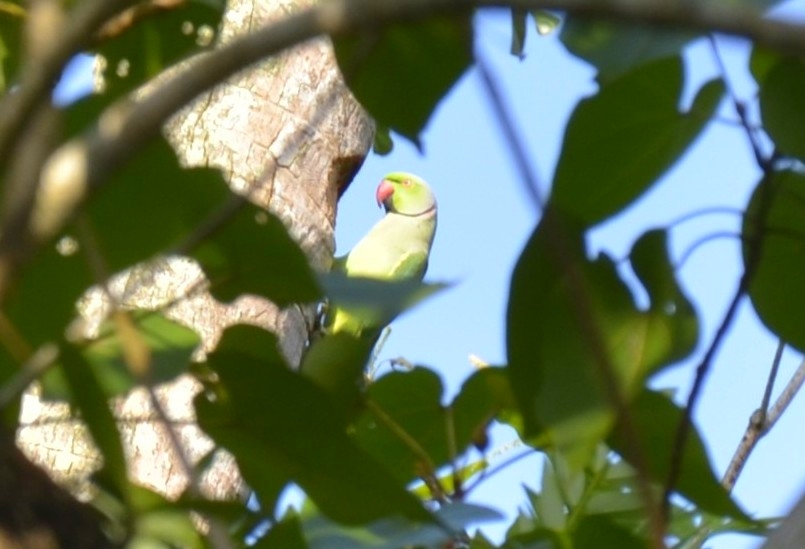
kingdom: Animalia
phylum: Chordata
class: Aves
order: Psittaciformes
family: Psittacidae
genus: Psittacula
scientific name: Psittacula krameri
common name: Rose-ringed parakeet
